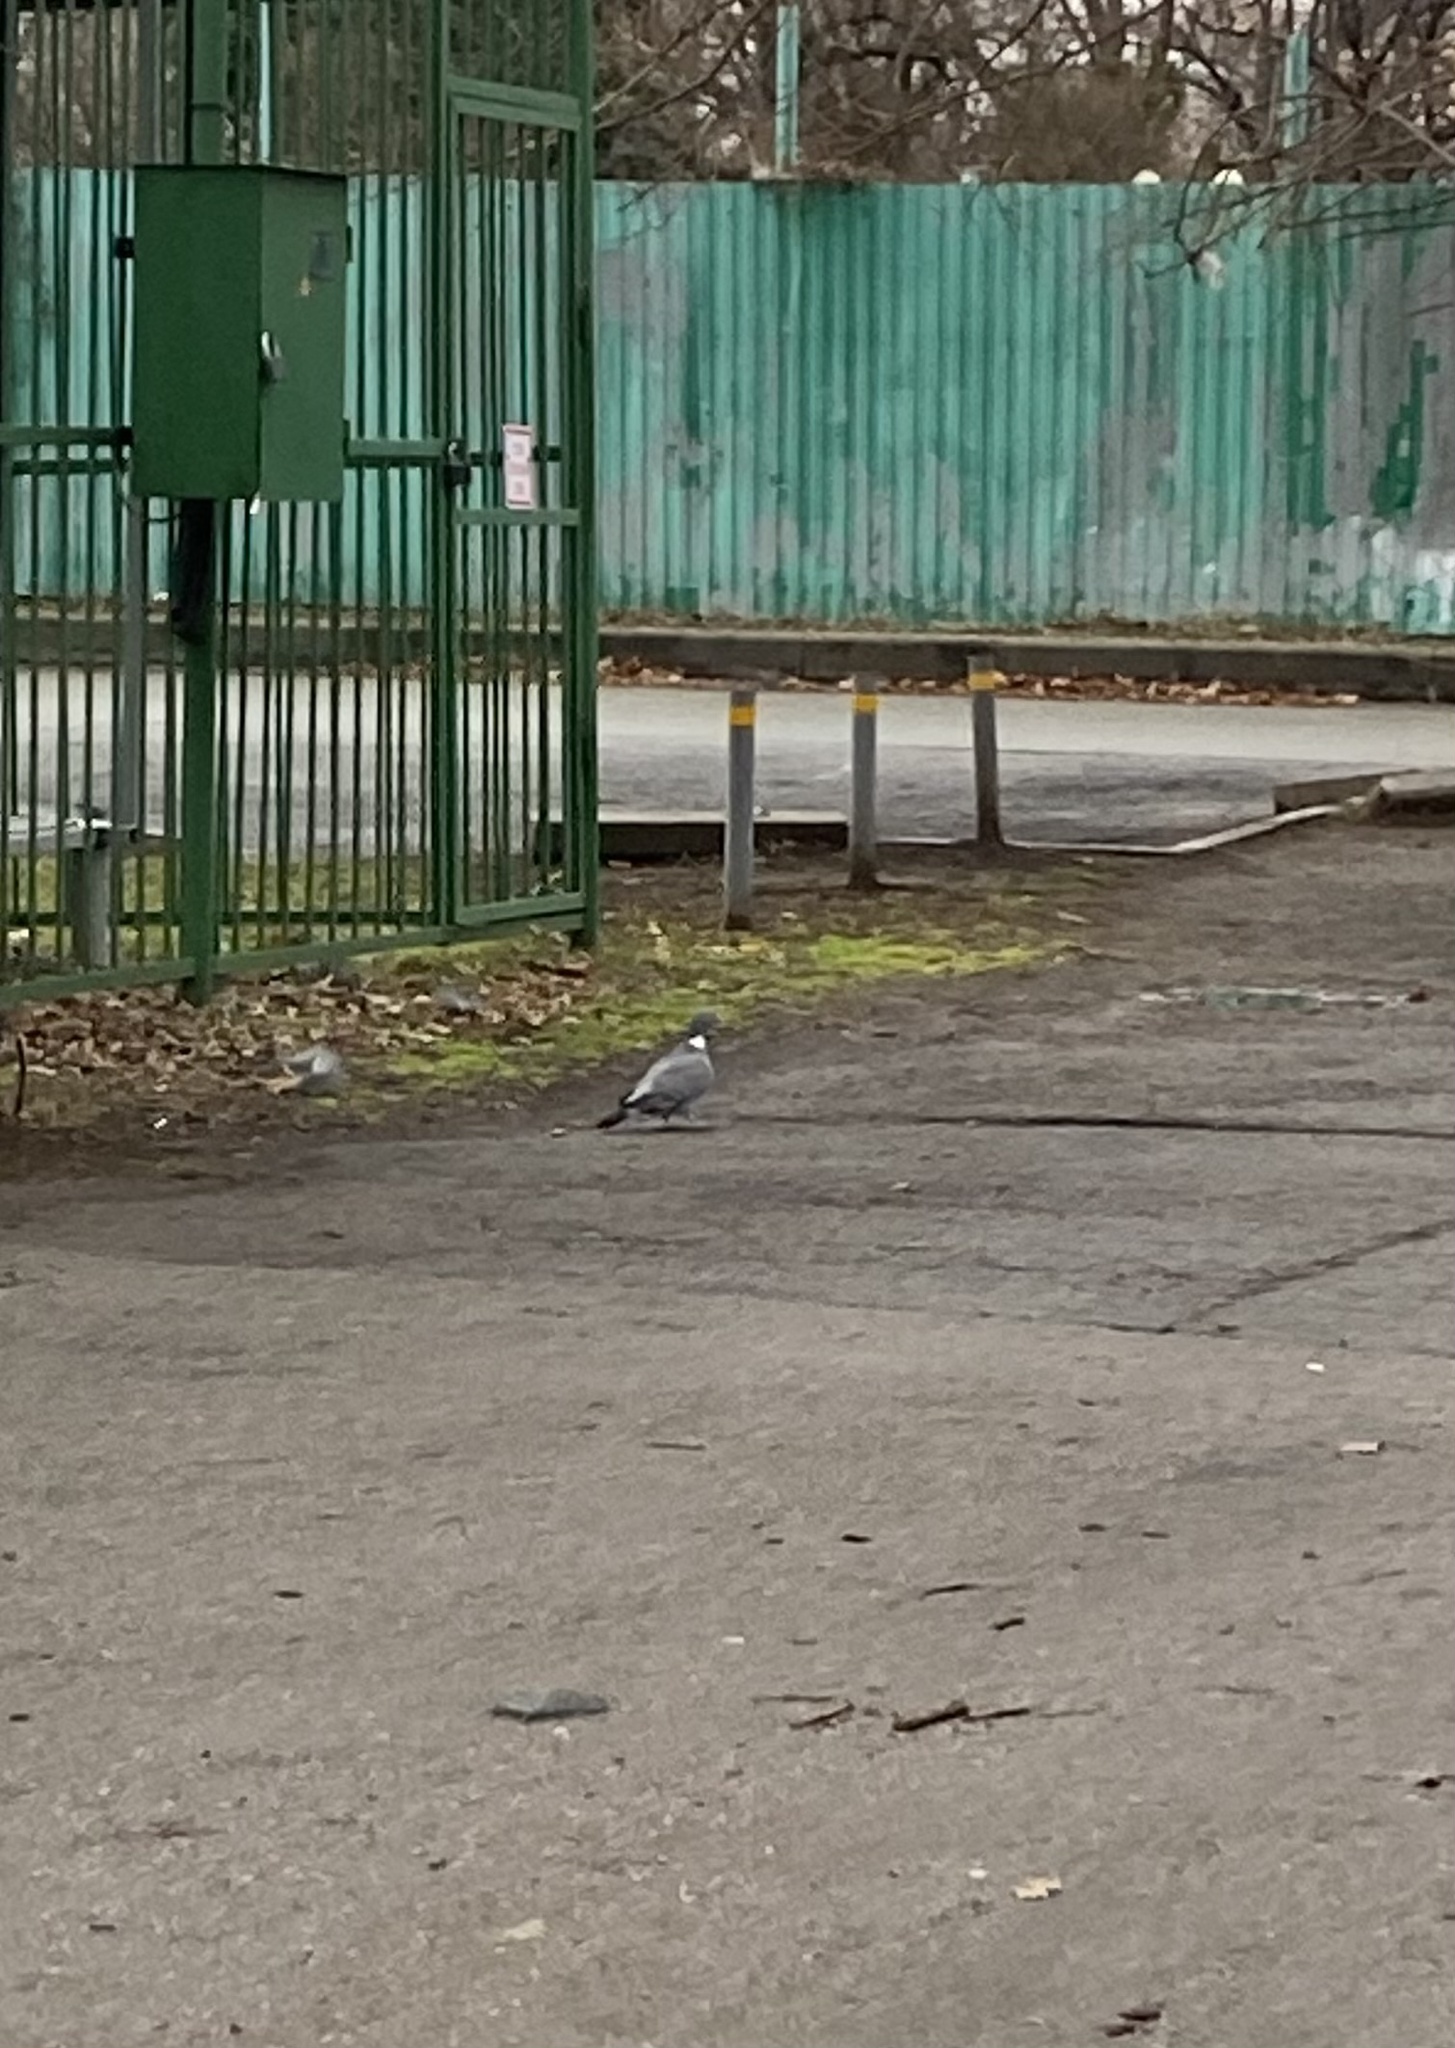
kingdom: Animalia
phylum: Chordata
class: Aves
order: Columbiformes
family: Columbidae
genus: Columba
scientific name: Columba palumbus
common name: Common wood pigeon
